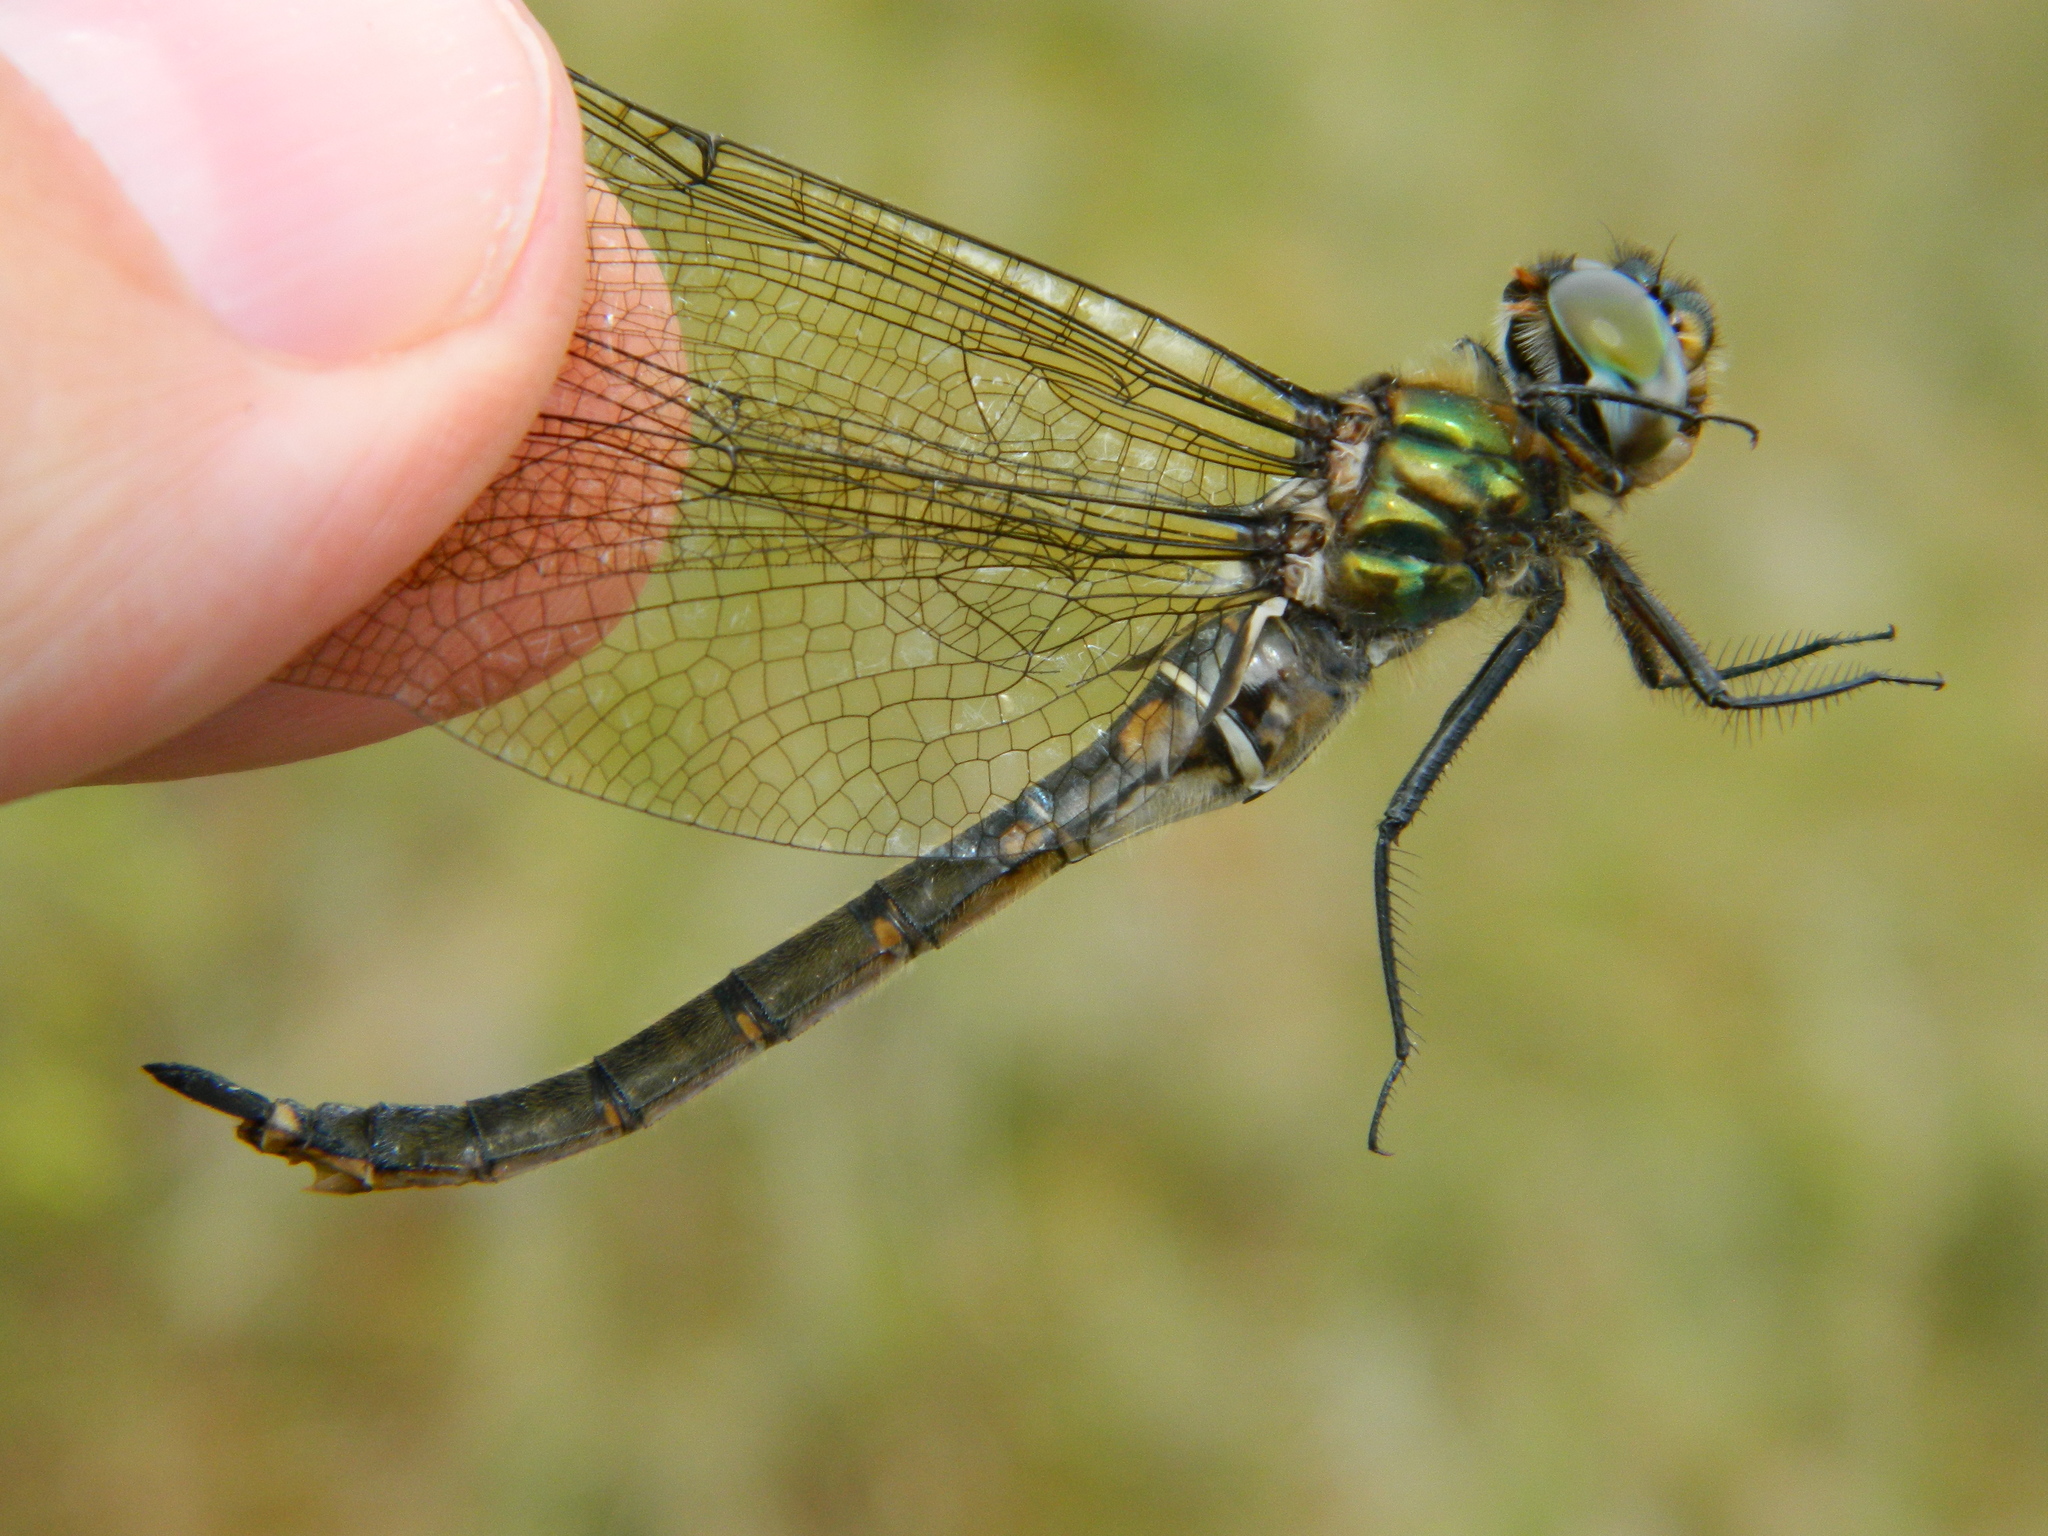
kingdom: Animalia
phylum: Arthropoda
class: Insecta
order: Odonata
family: Corduliidae
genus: Somatochlora
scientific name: Somatochlora brevicincta
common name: Quebec emerald
